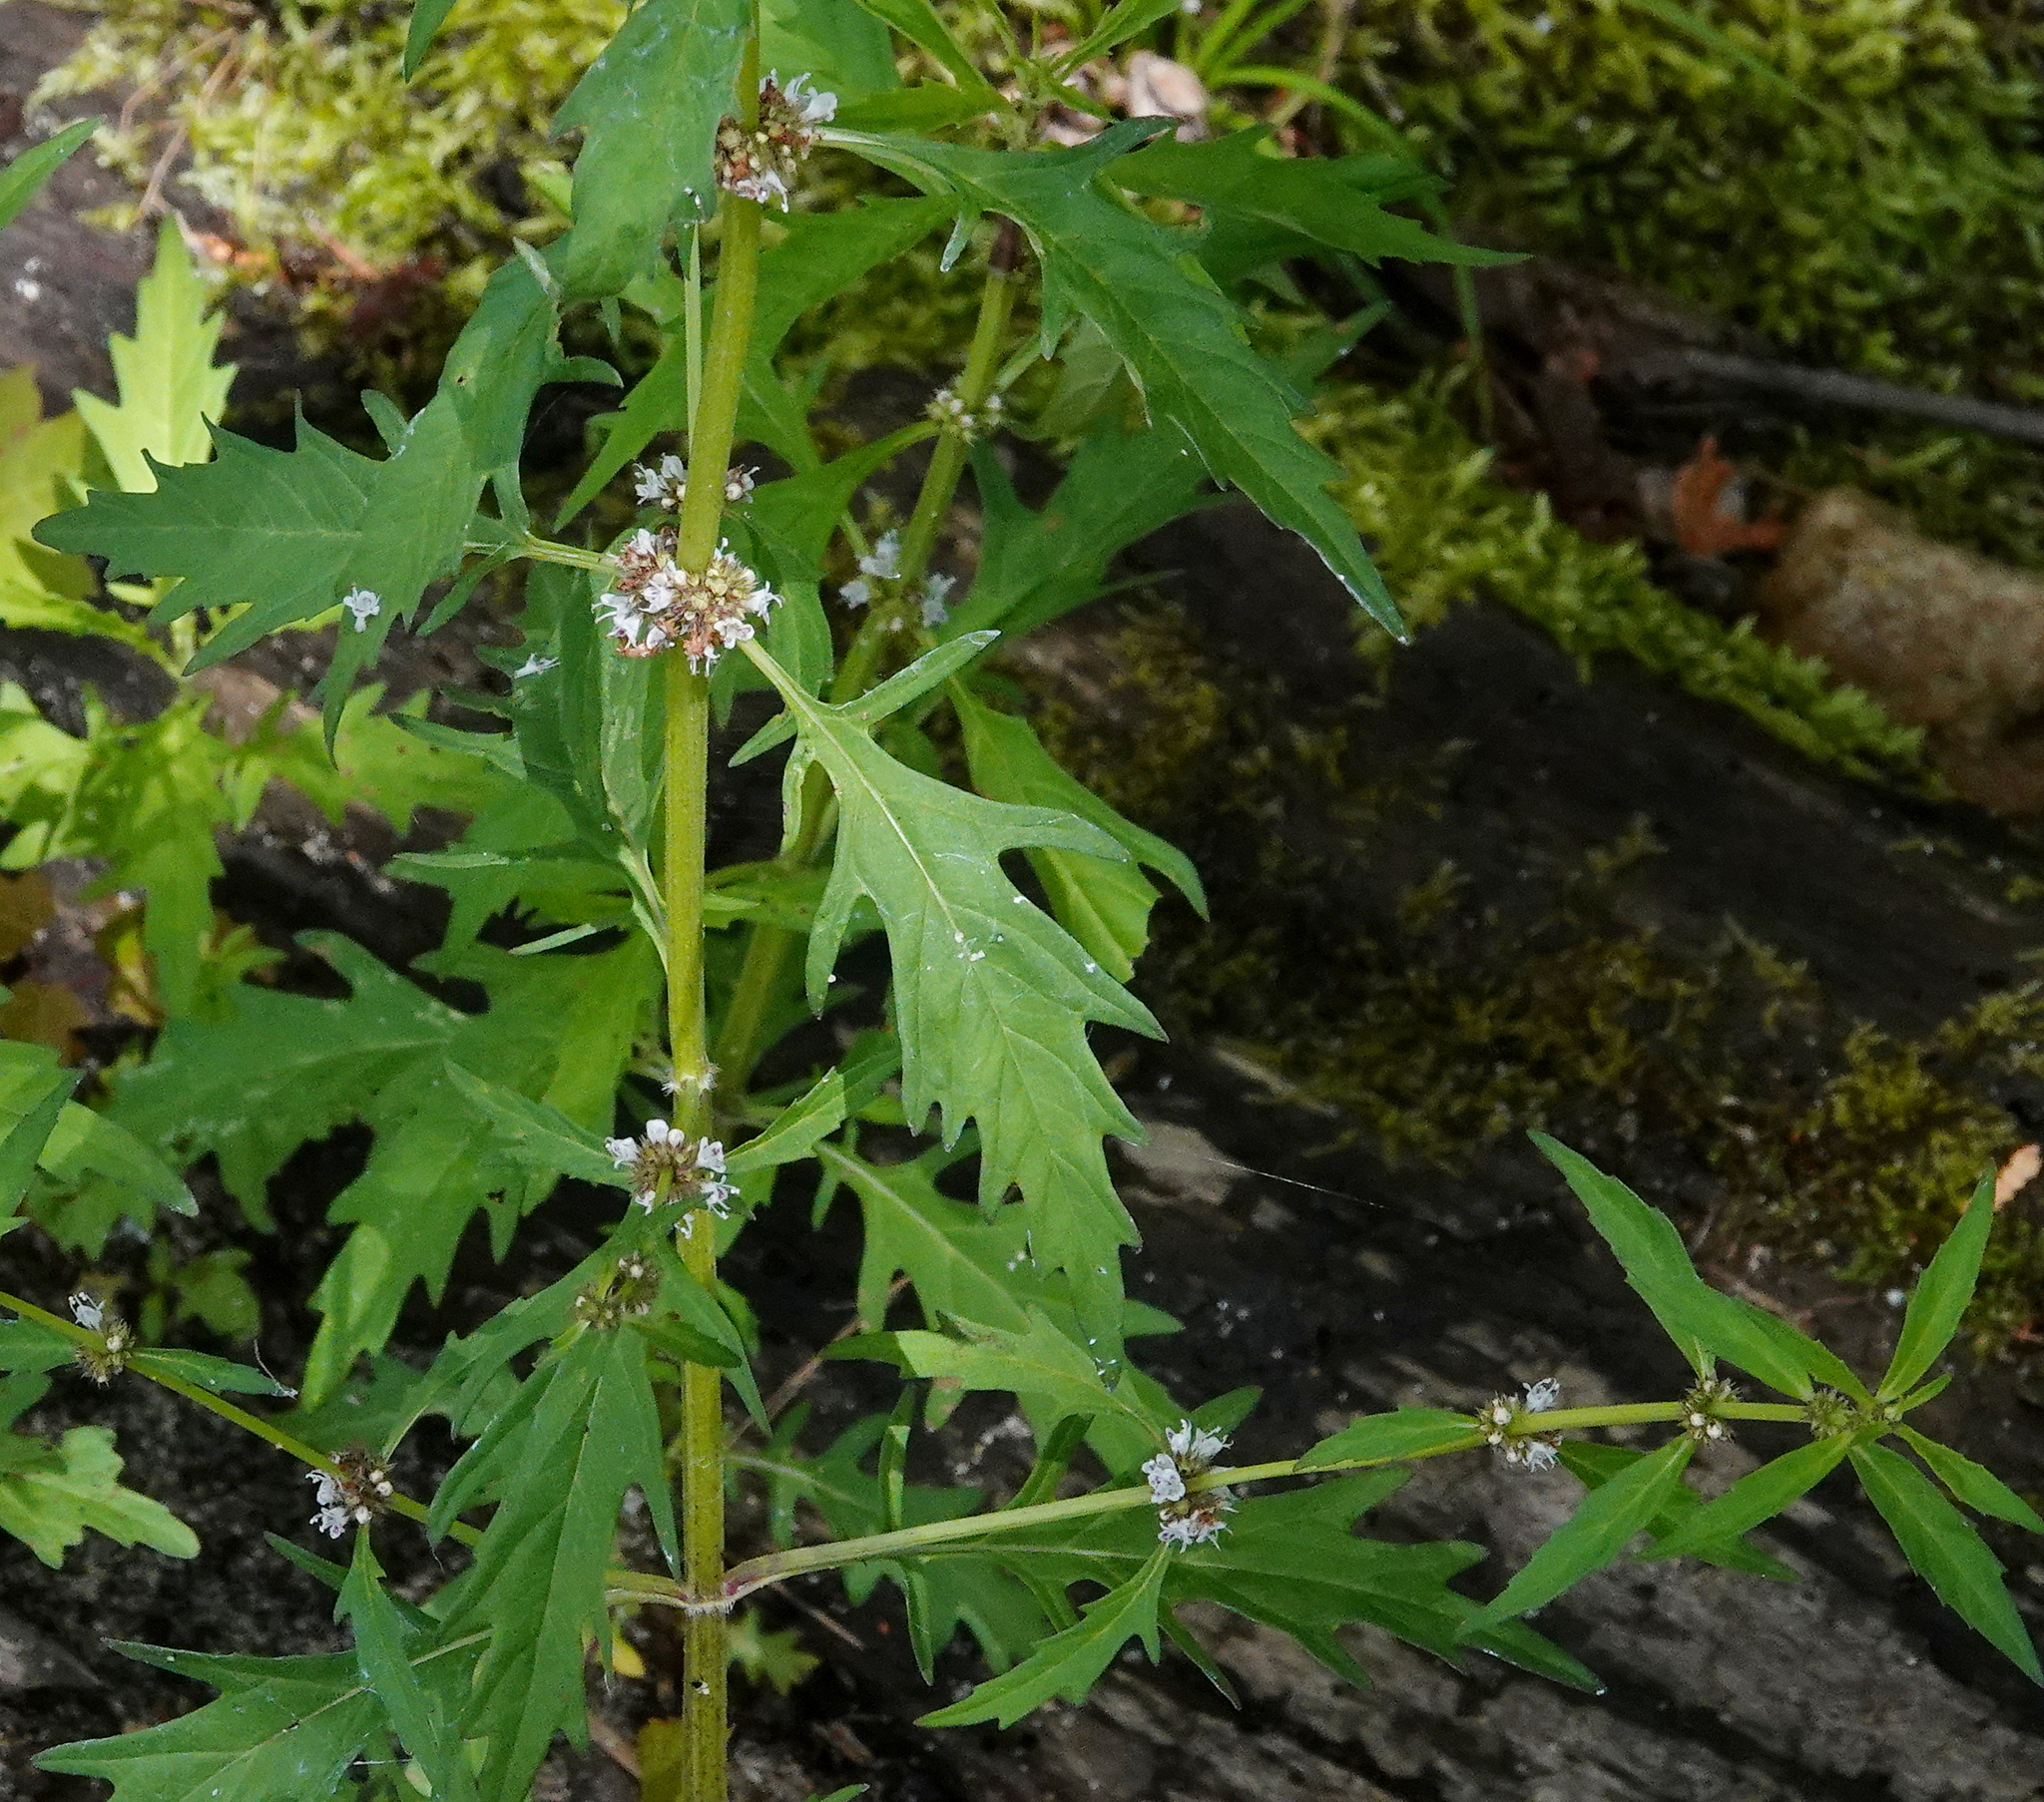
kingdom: Plantae
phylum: Tracheophyta
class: Magnoliopsida
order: Lamiales
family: Lamiaceae
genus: Lycopus
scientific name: Lycopus americanus
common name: American bugleweed
